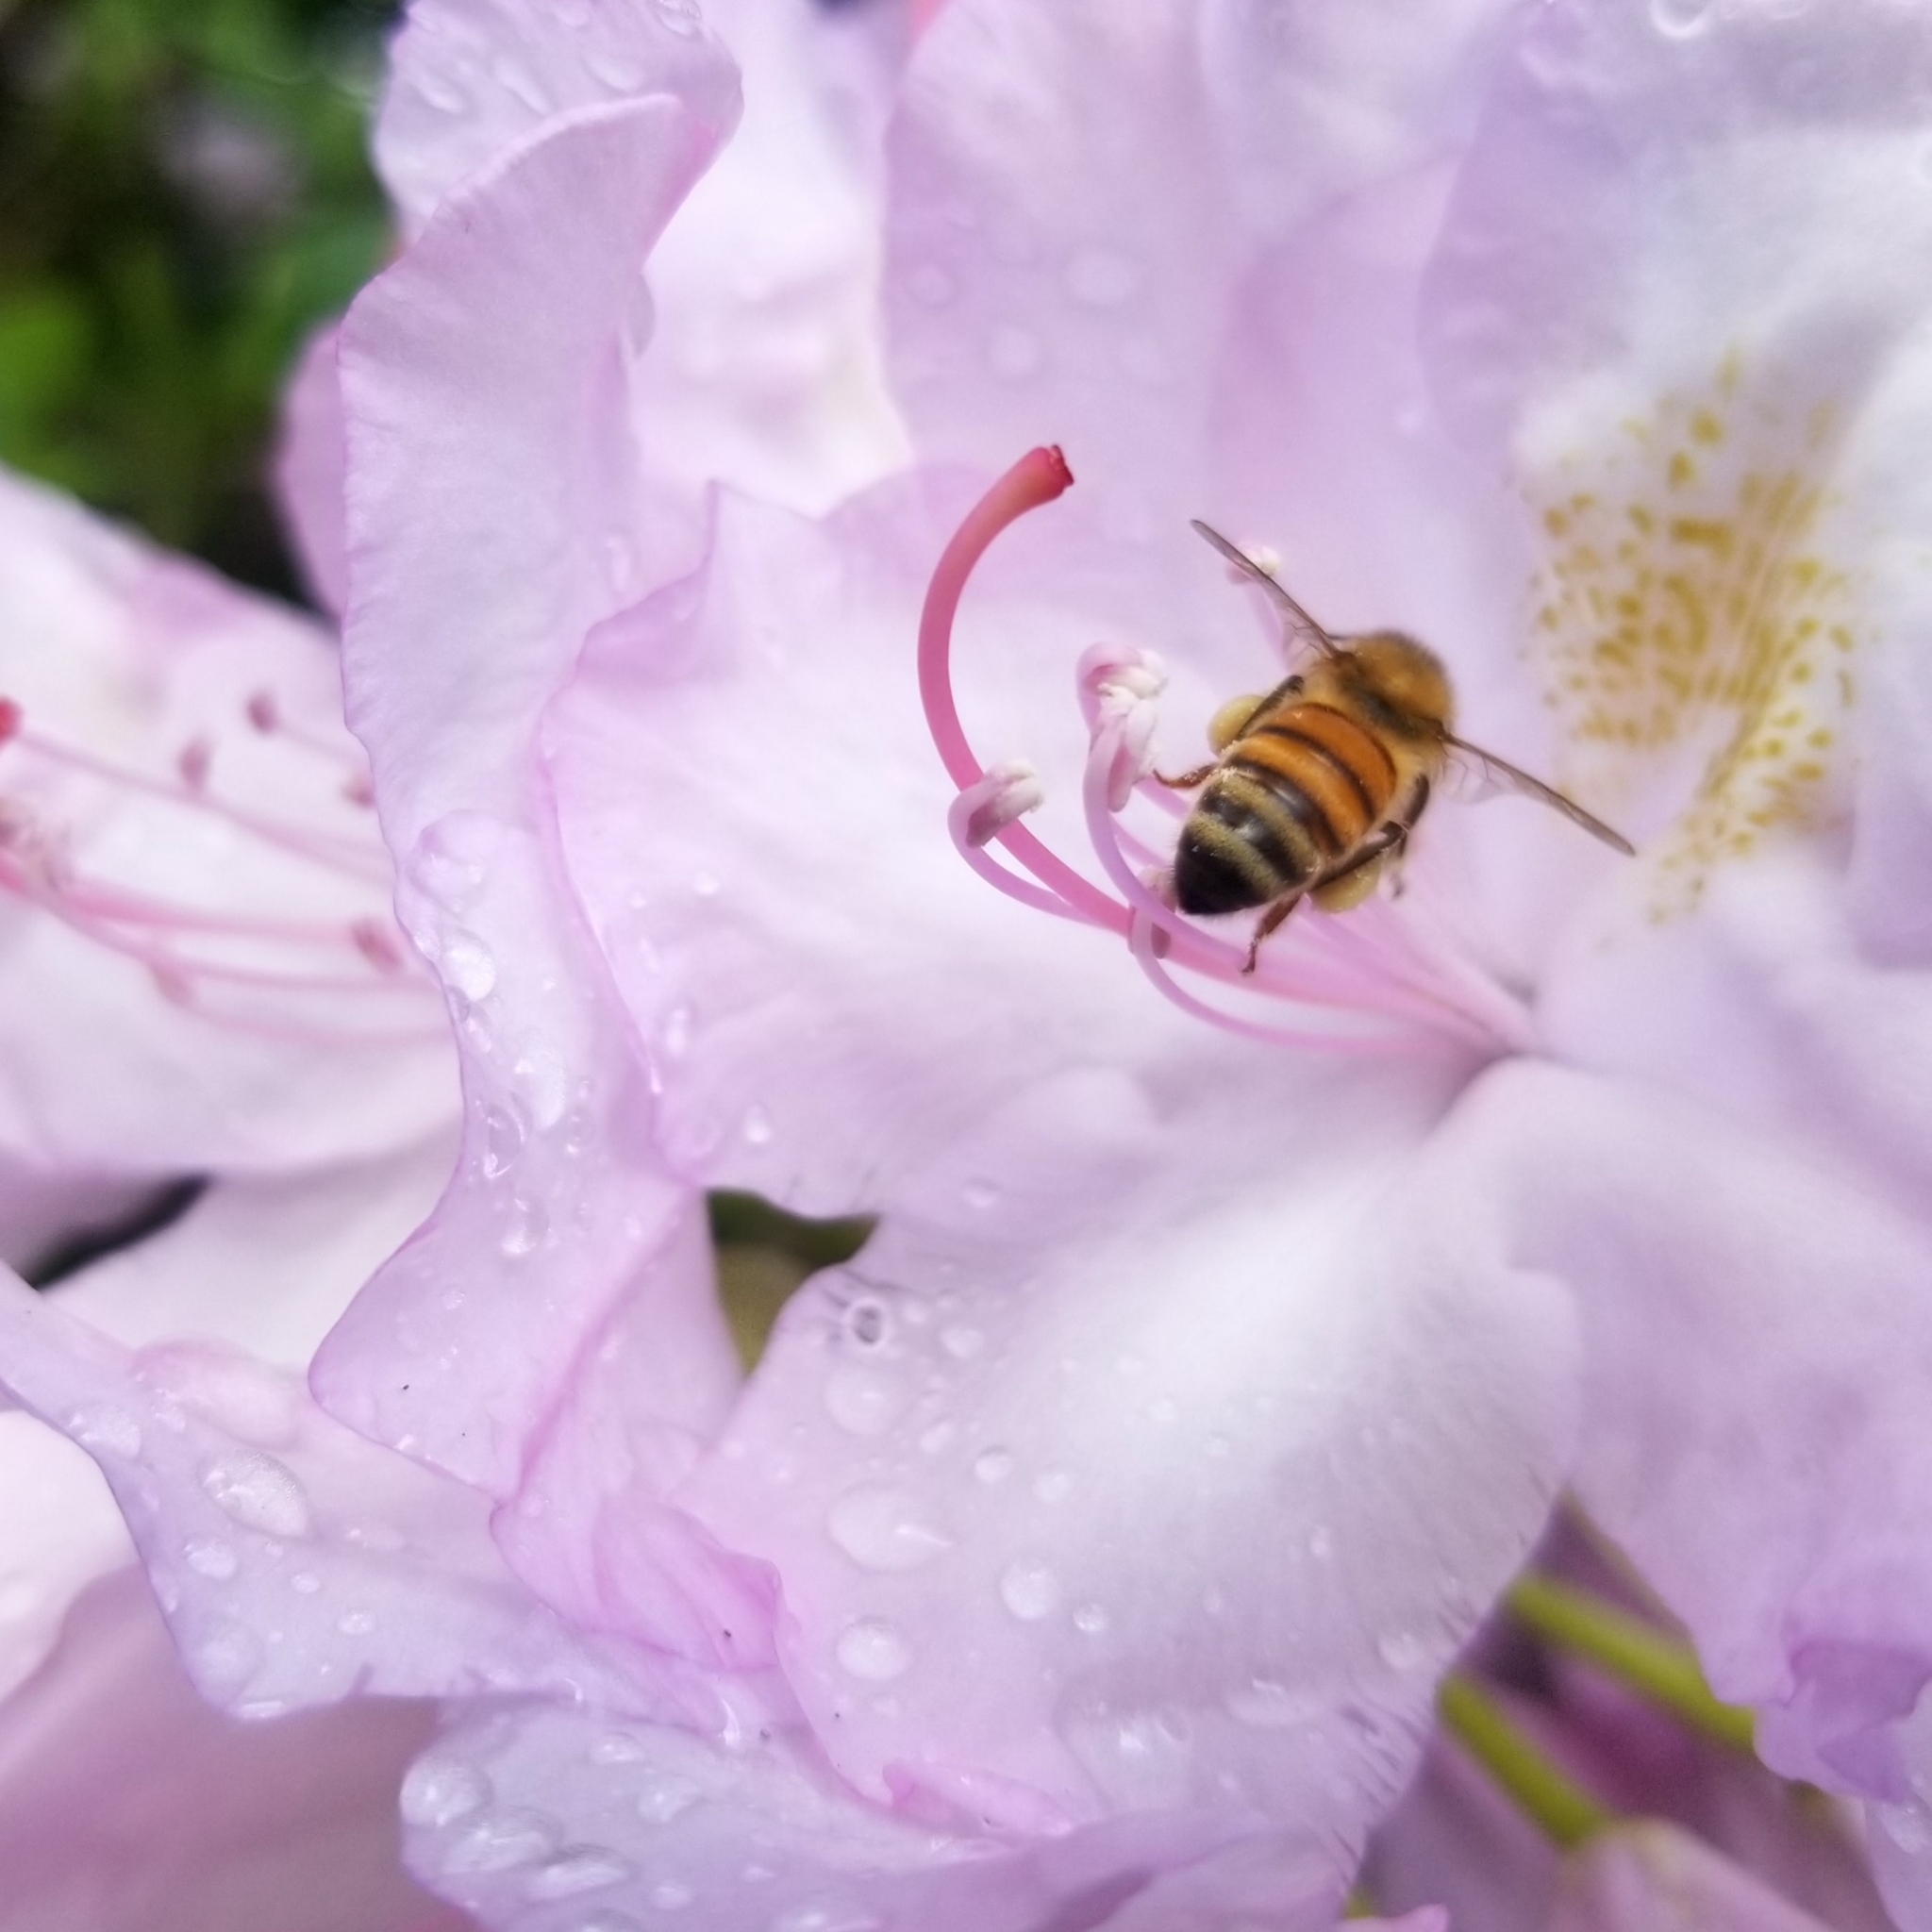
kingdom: Animalia
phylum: Arthropoda
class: Insecta
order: Hymenoptera
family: Apidae
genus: Apis
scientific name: Apis mellifera
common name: Honey bee
